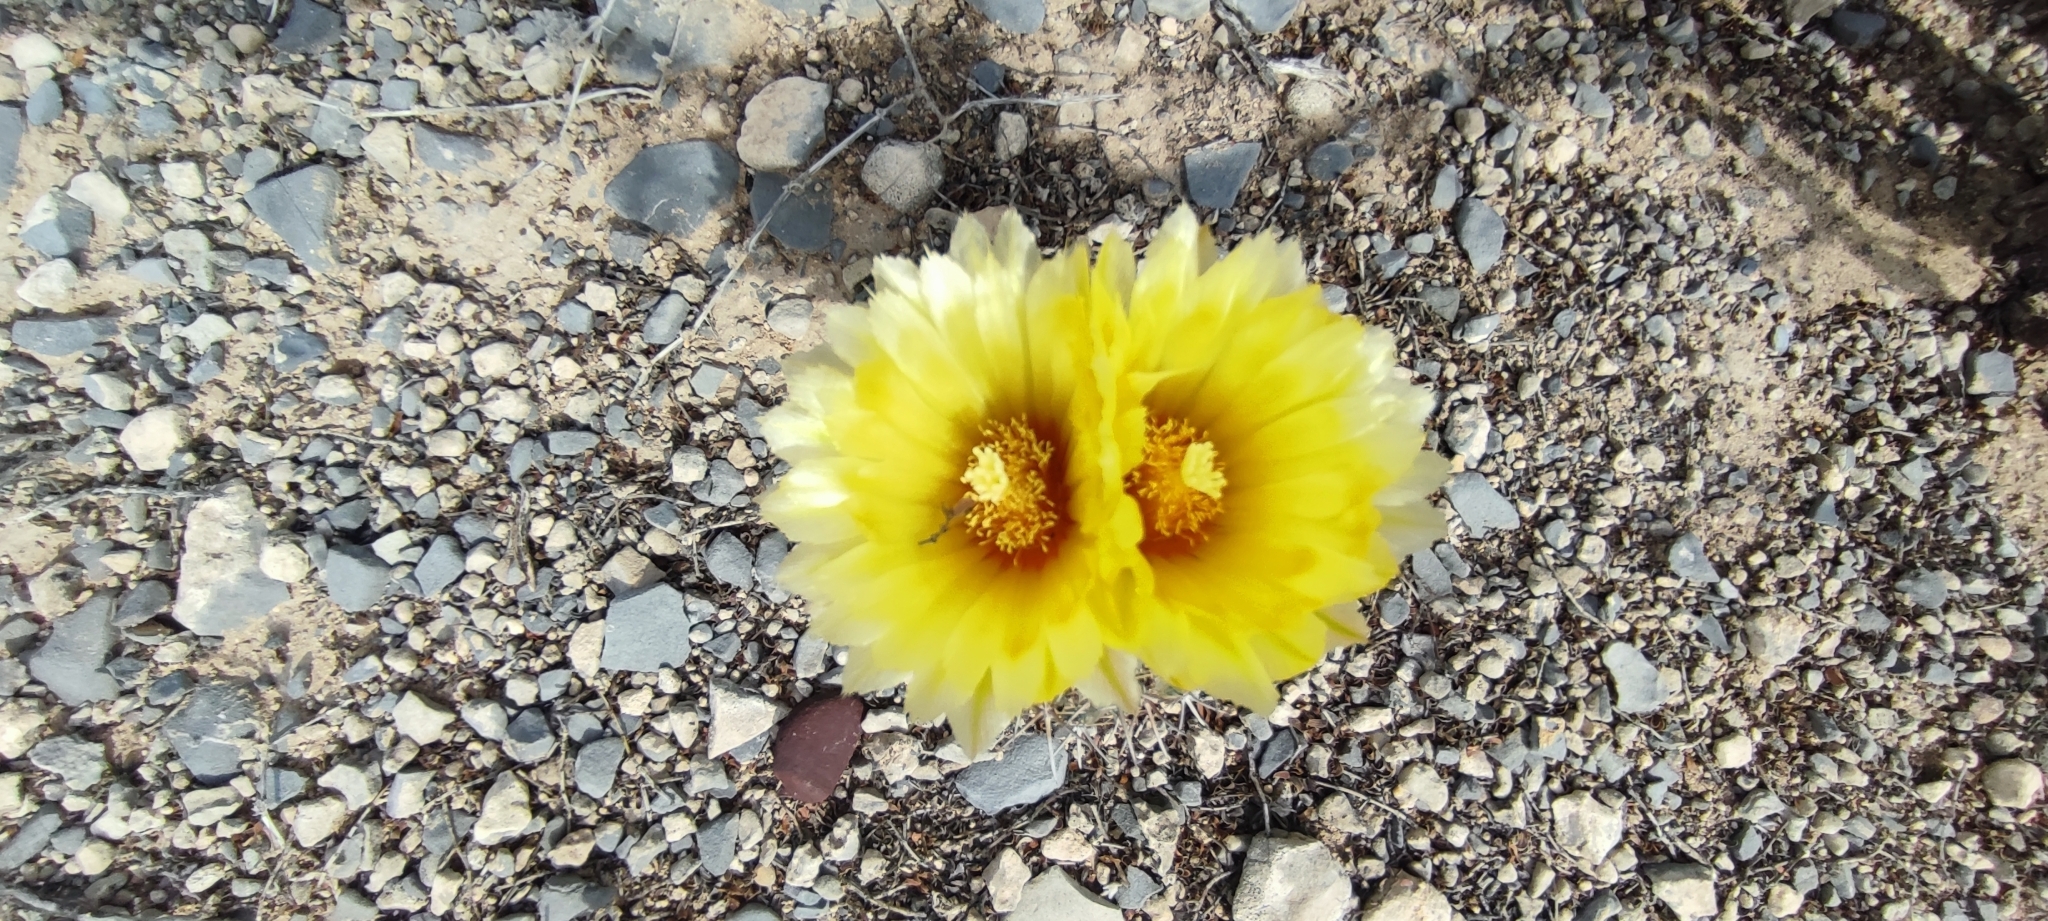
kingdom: Plantae
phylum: Tracheophyta
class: Magnoliopsida
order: Caryophyllales
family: Cactaceae
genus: Coryphantha
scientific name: Coryphantha salinensis
